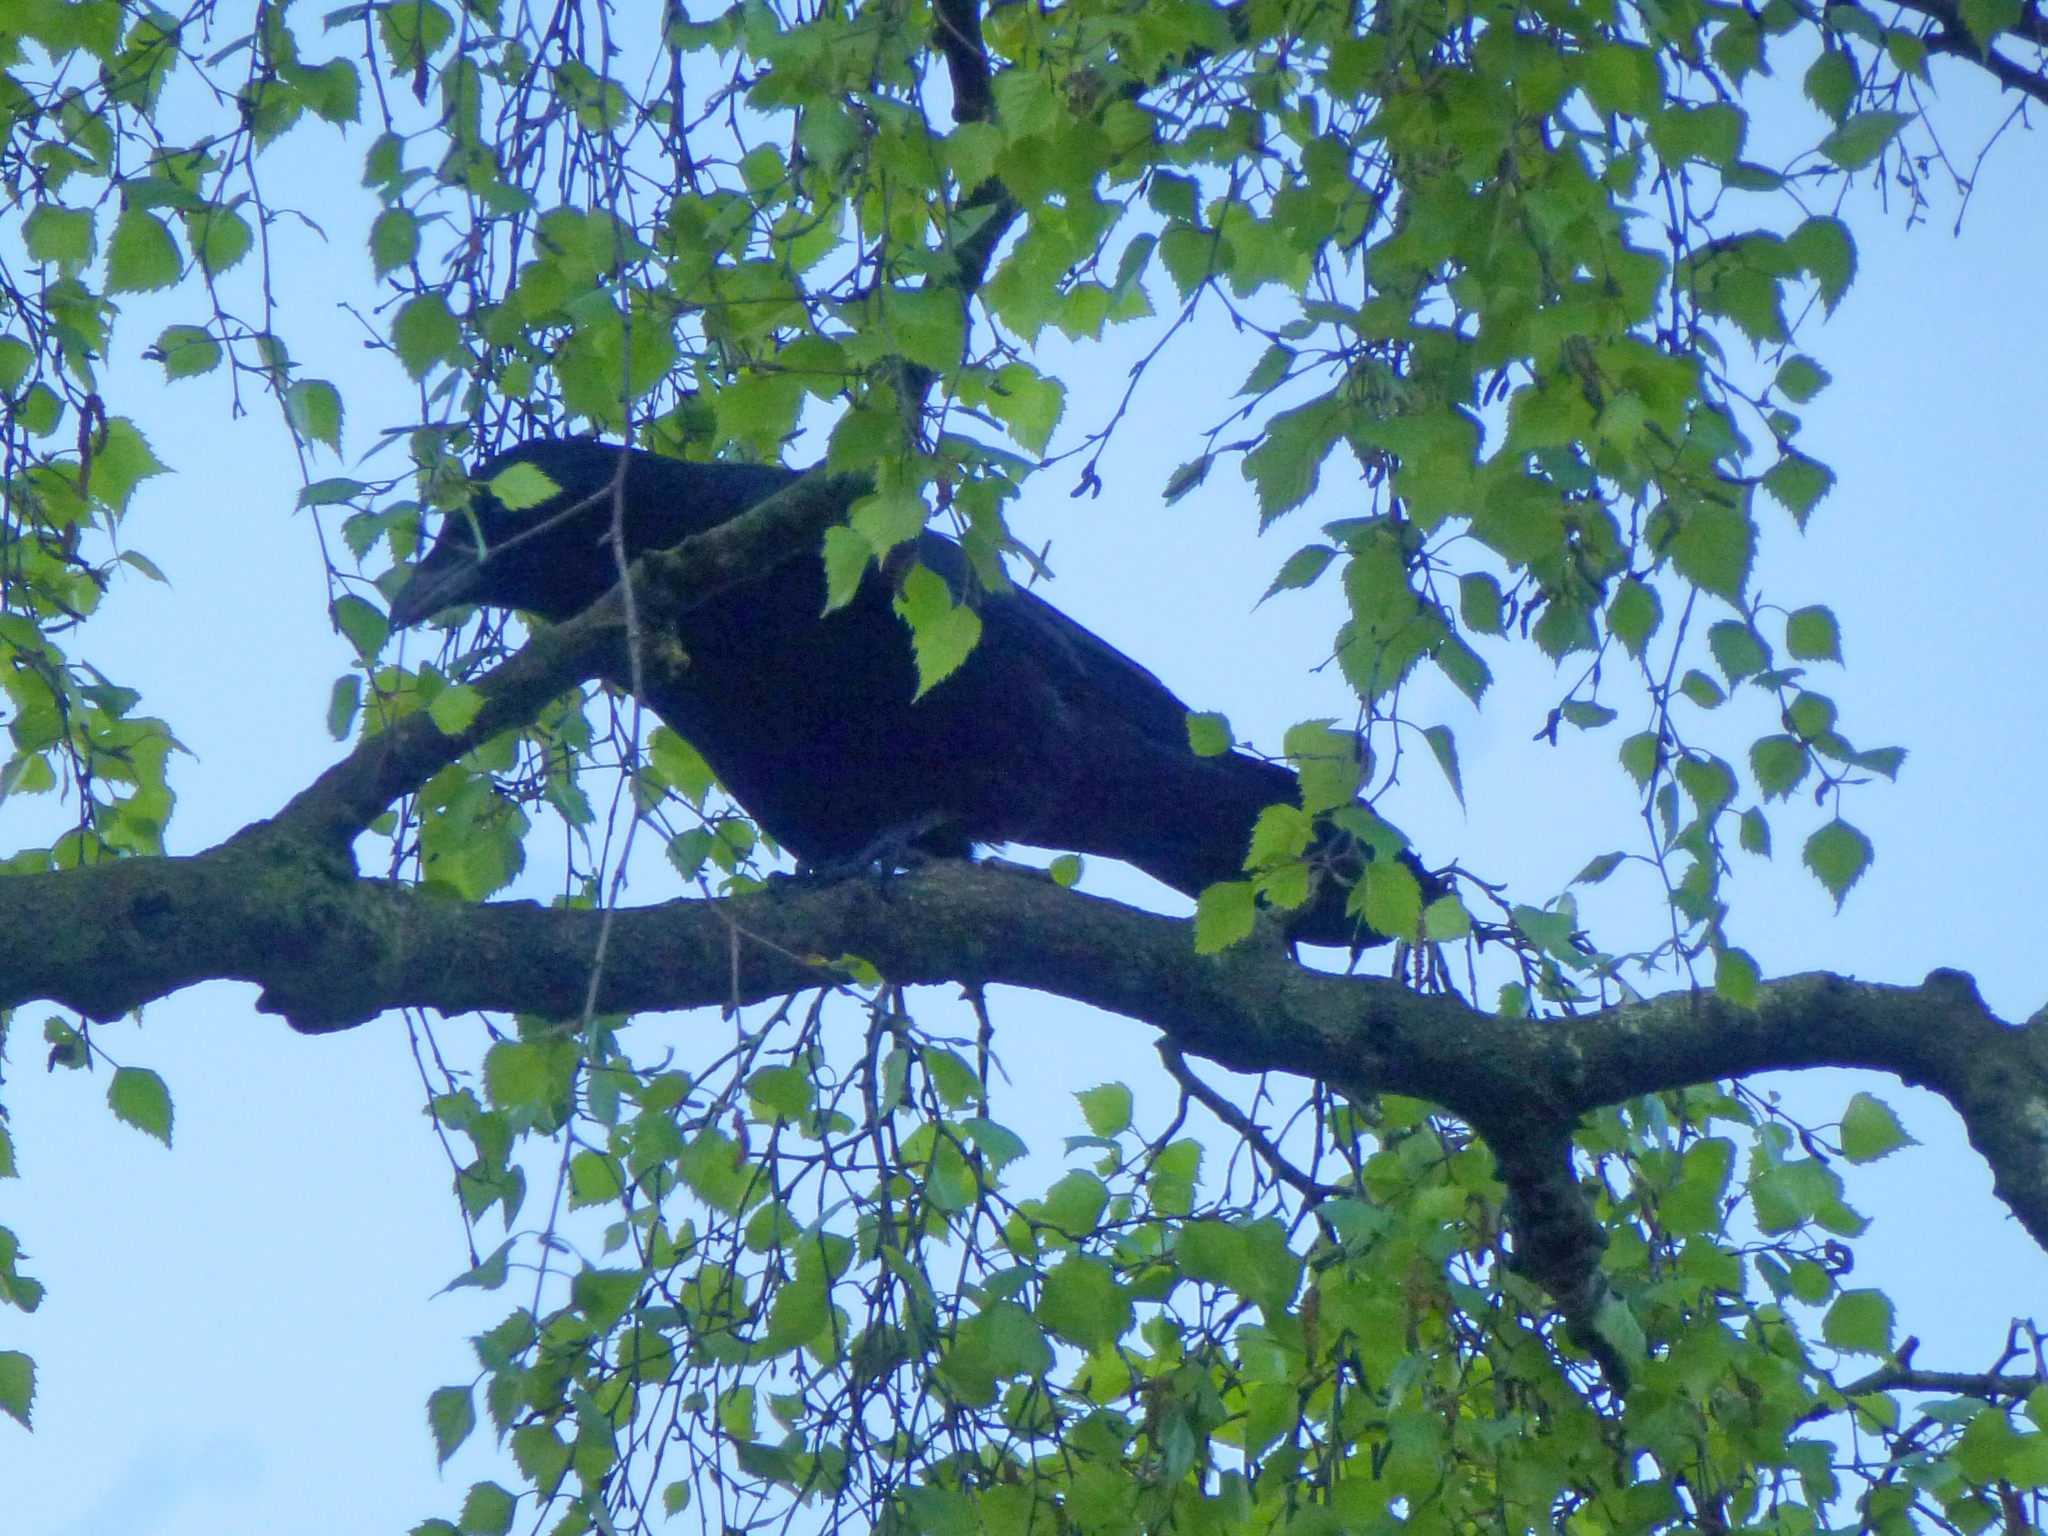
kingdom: Animalia
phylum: Chordata
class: Aves
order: Passeriformes
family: Corvidae
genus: Corvus
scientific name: Corvus corone
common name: Carrion crow
